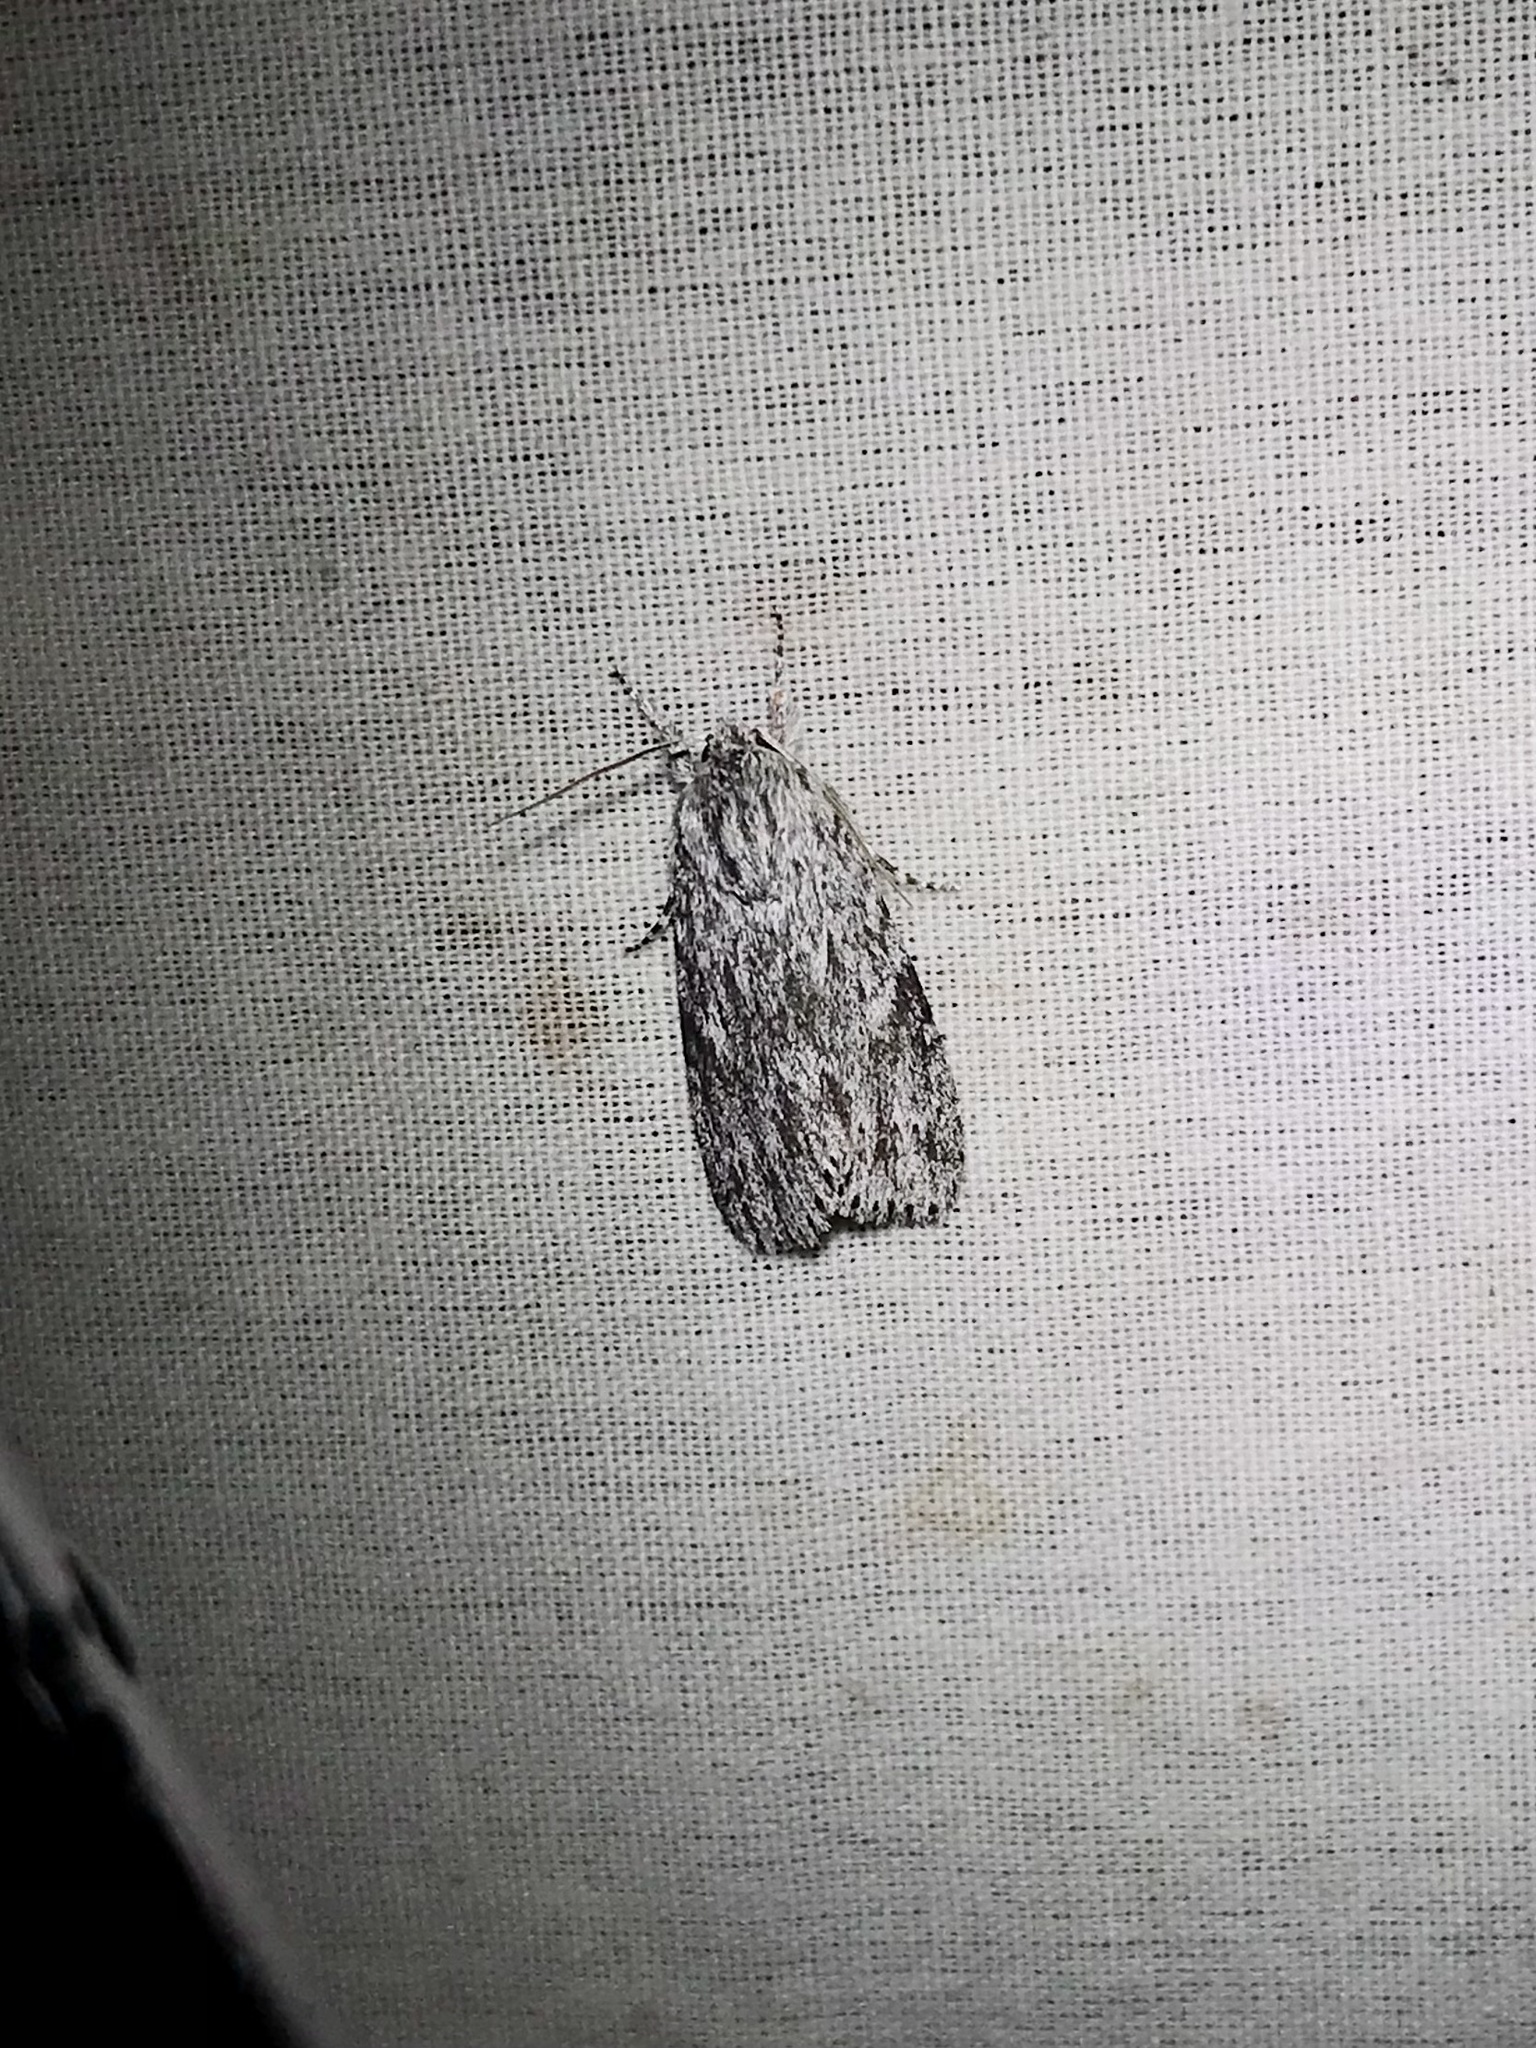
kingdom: Animalia
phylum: Arthropoda
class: Insecta
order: Lepidoptera
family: Noctuidae
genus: Acronicta
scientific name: Acronicta oblinita
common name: Smeared dagger
